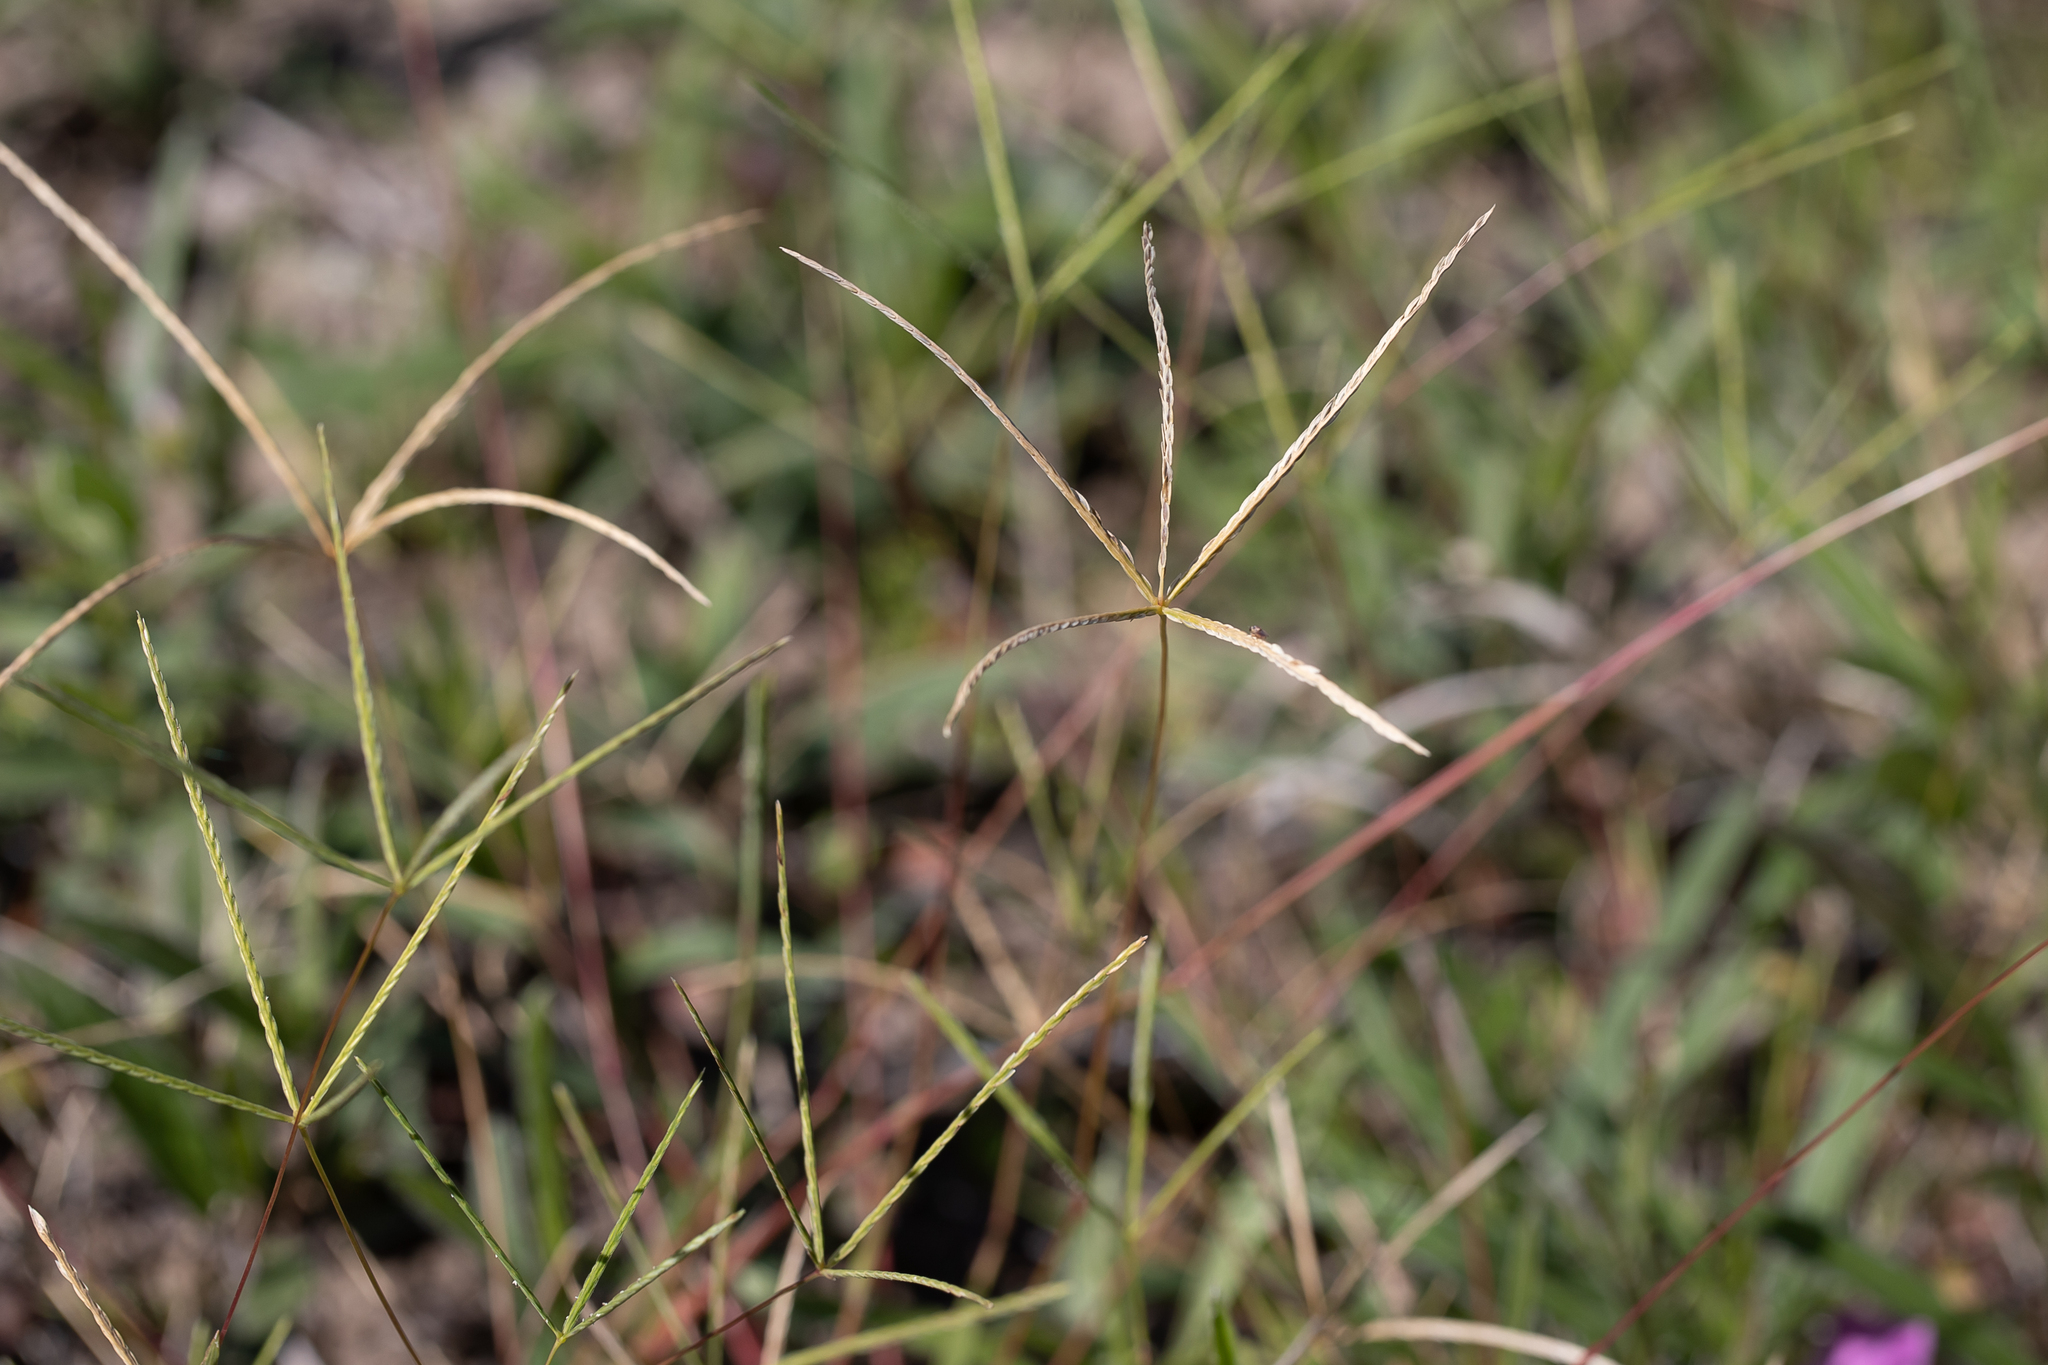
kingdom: Plantae
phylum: Tracheophyta
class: Liliopsida
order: Poales
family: Poaceae
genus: Cynodon
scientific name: Cynodon convergens
